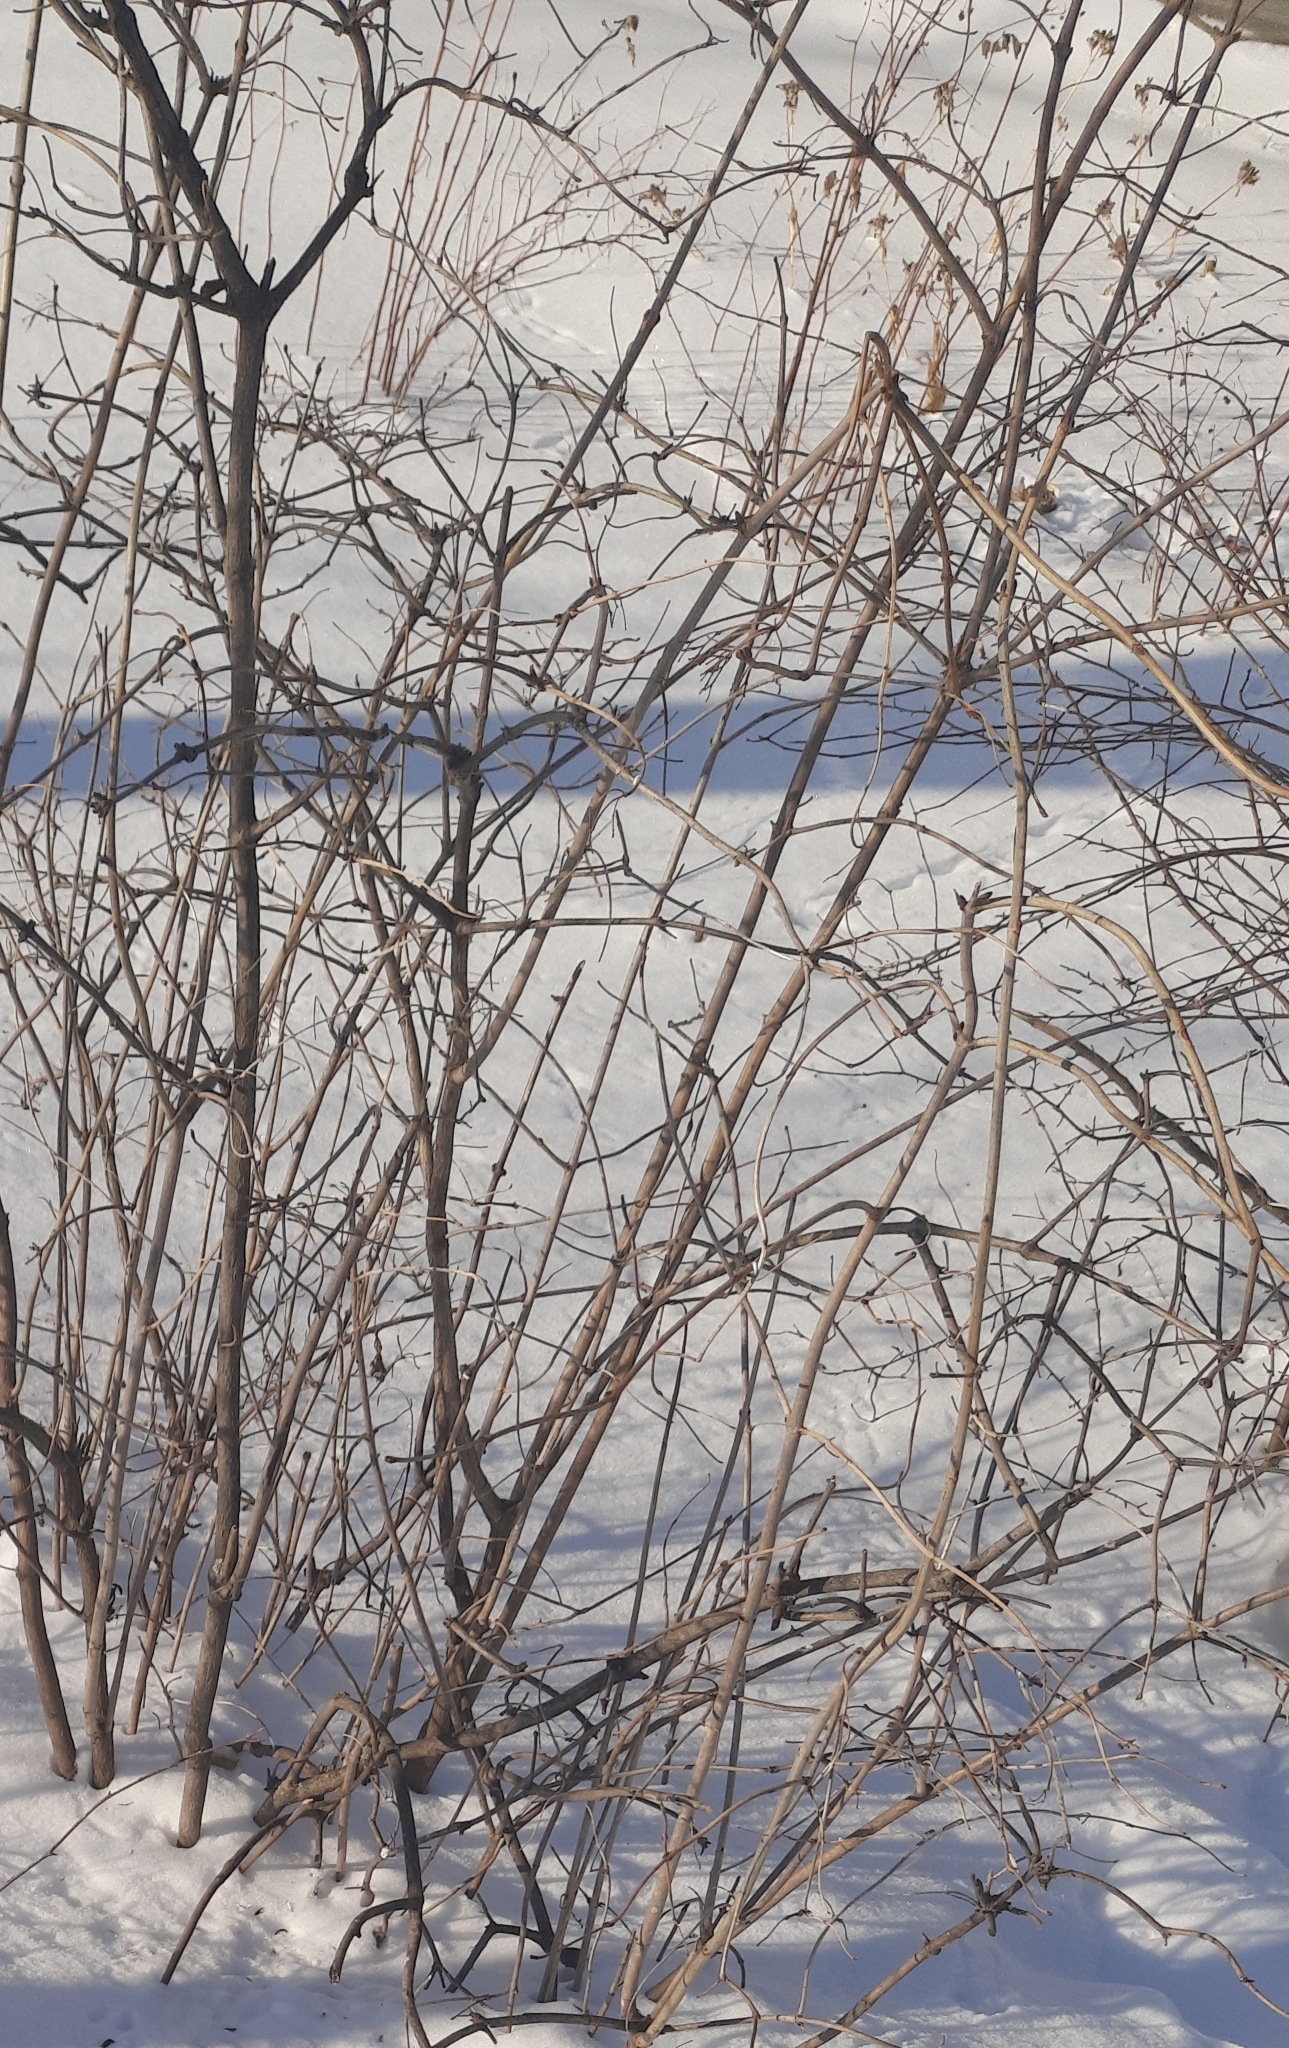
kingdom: Plantae
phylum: Tracheophyta
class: Magnoliopsida
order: Dipsacales
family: Viburnaceae
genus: Viburnum
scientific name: Viburnum opulus
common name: Guelder-rose
